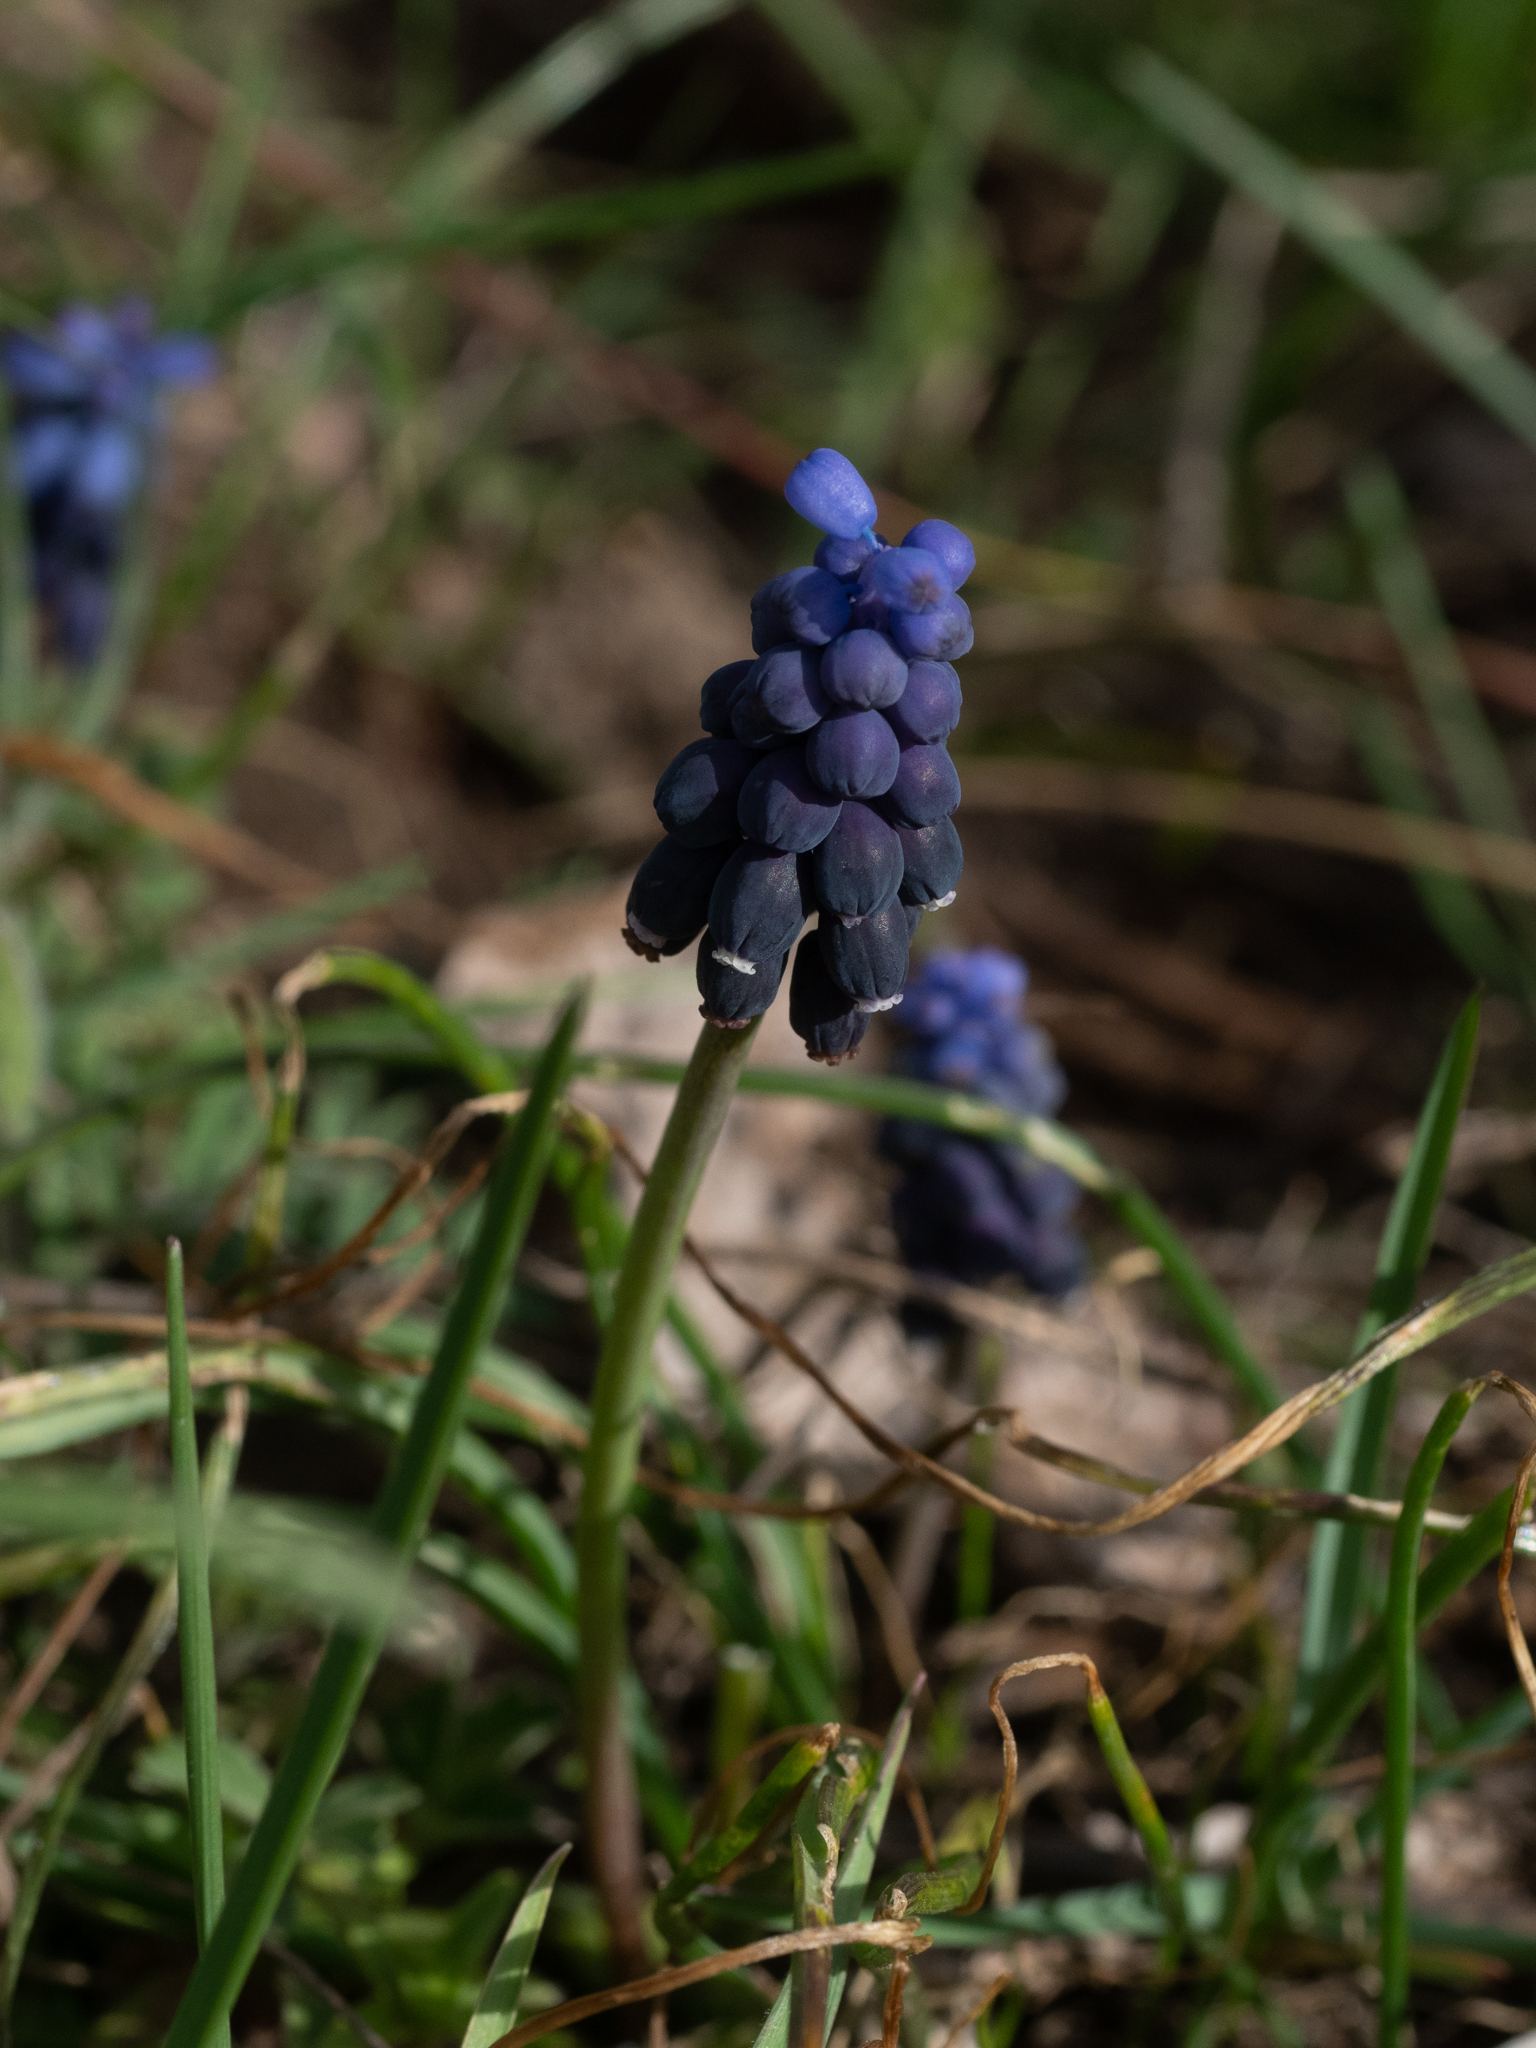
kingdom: Plantae
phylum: Tracheophyta
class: Liliopsida
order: Asparagales
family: Asparagaceae
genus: Muscari
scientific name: Muscari neglectum
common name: Grape-hyacinth
